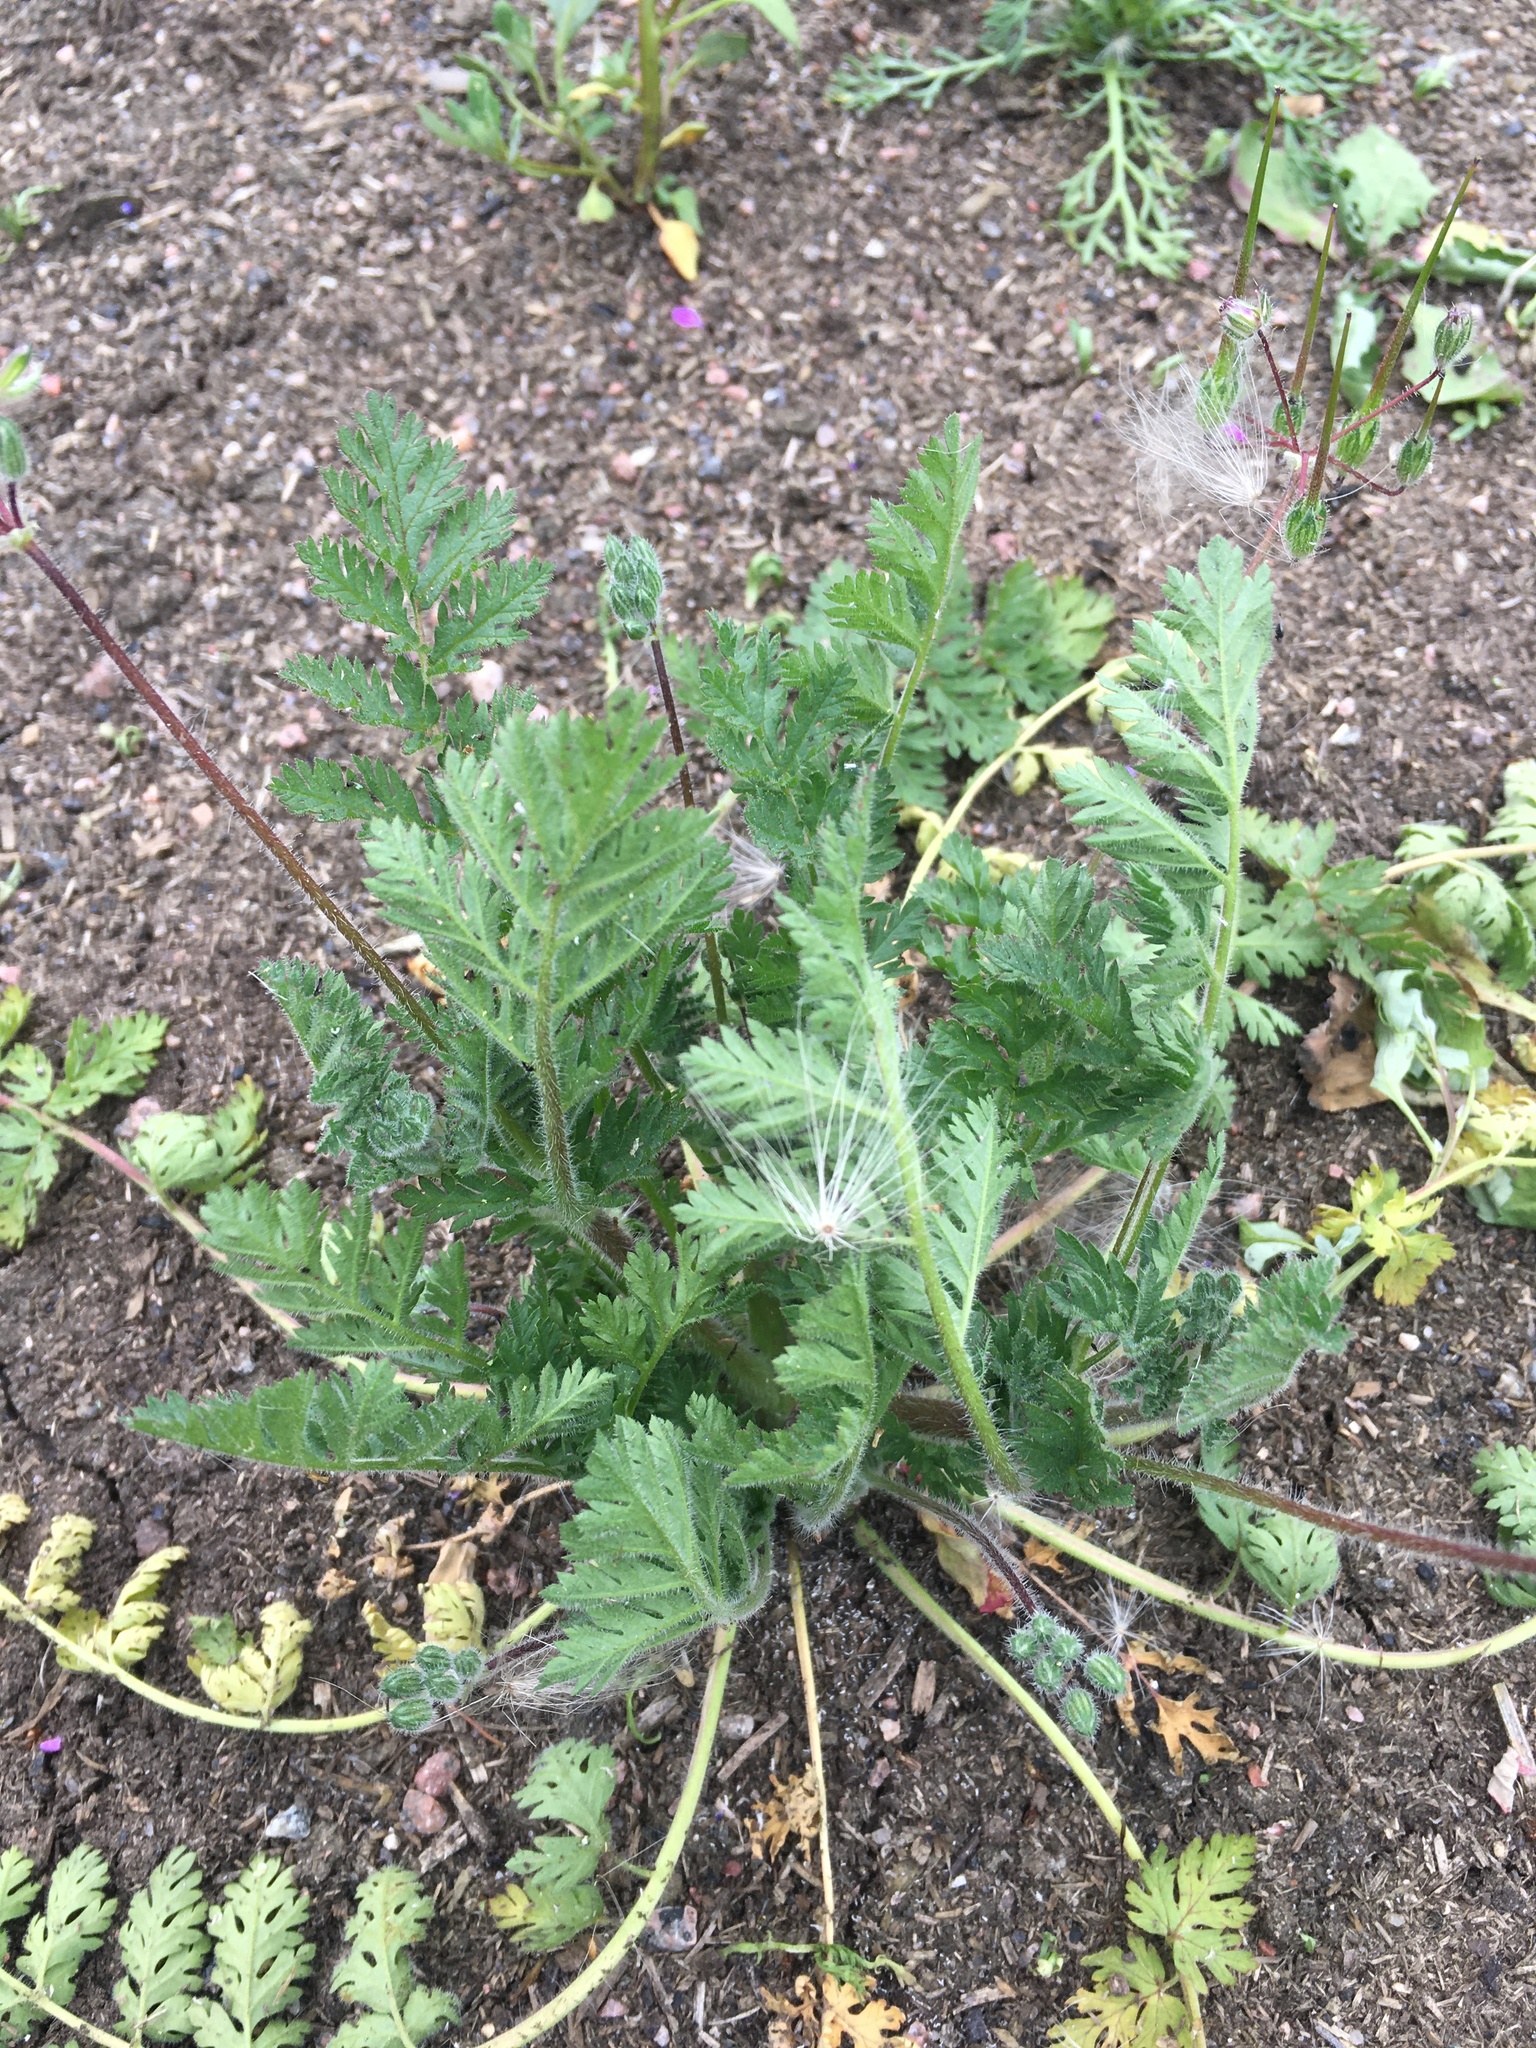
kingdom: Plantae
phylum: Tracheophyta
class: Magnoliopsida
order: Geraniales
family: Geraniaceae
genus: Erodium
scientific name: Erodium cicutarium
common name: Common stork's-bill
